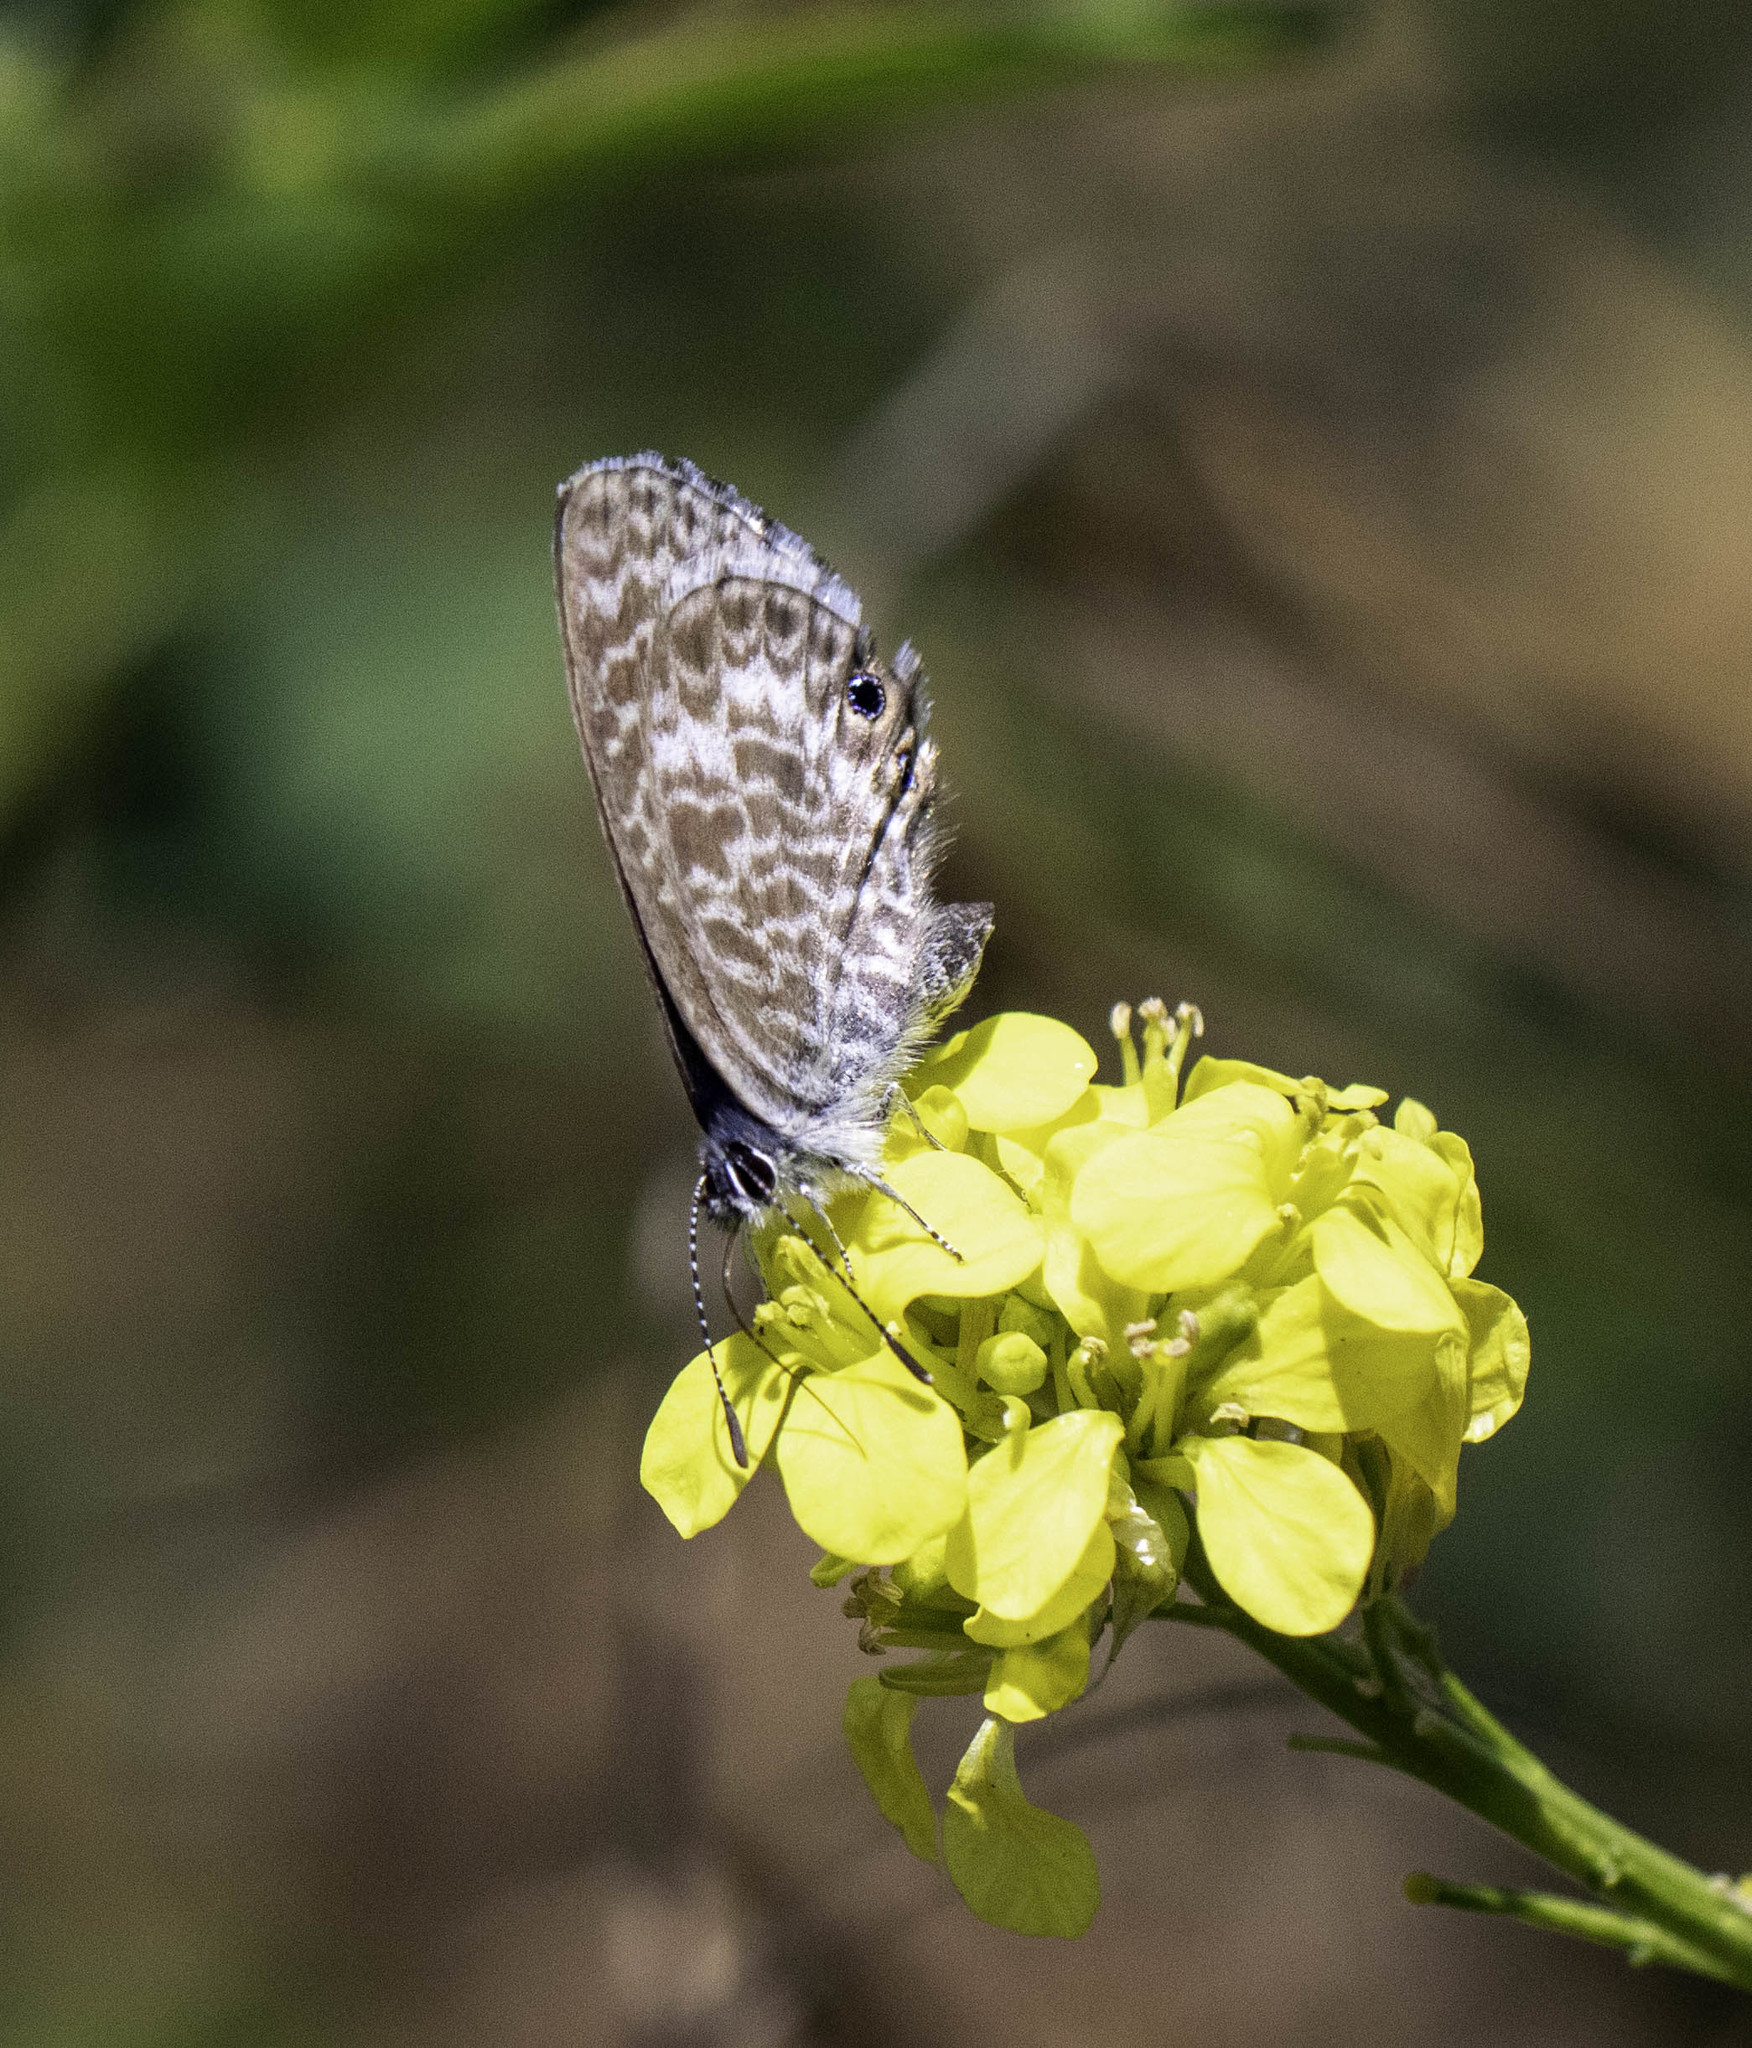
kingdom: Animalia
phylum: Arthropoda
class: Insecta
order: Lepidoptera
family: Lycaenidae
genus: Leptotes
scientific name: Leptotes marina
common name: Marine blue
